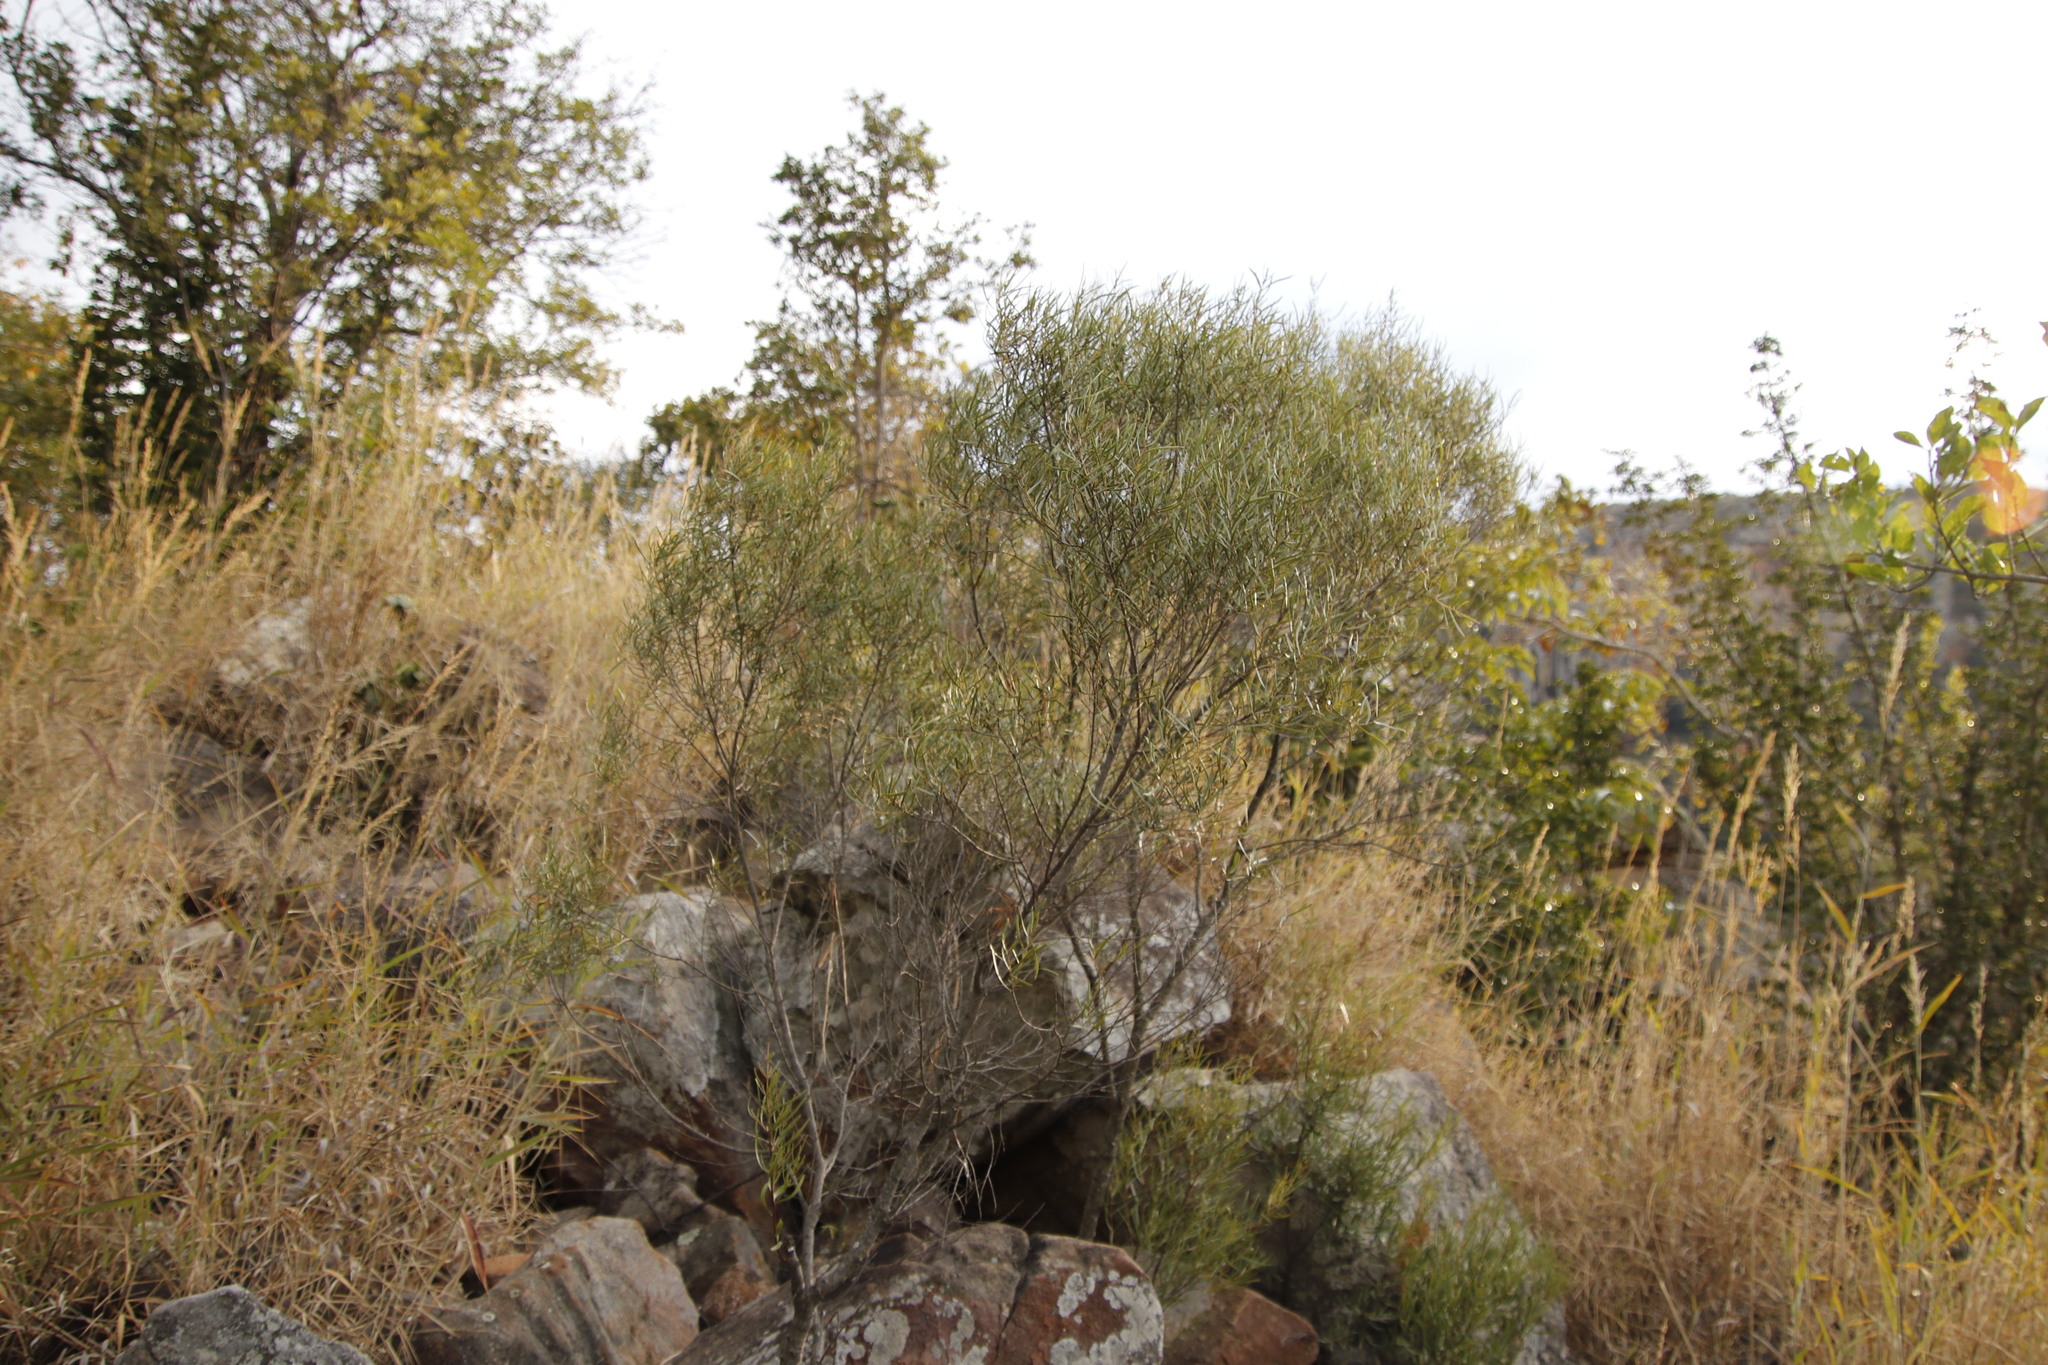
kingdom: Plantae
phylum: Tracheophyta
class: Magnoliopsida
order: Ericales
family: Ebenaceae
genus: Euclea
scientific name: Euclea linearis
